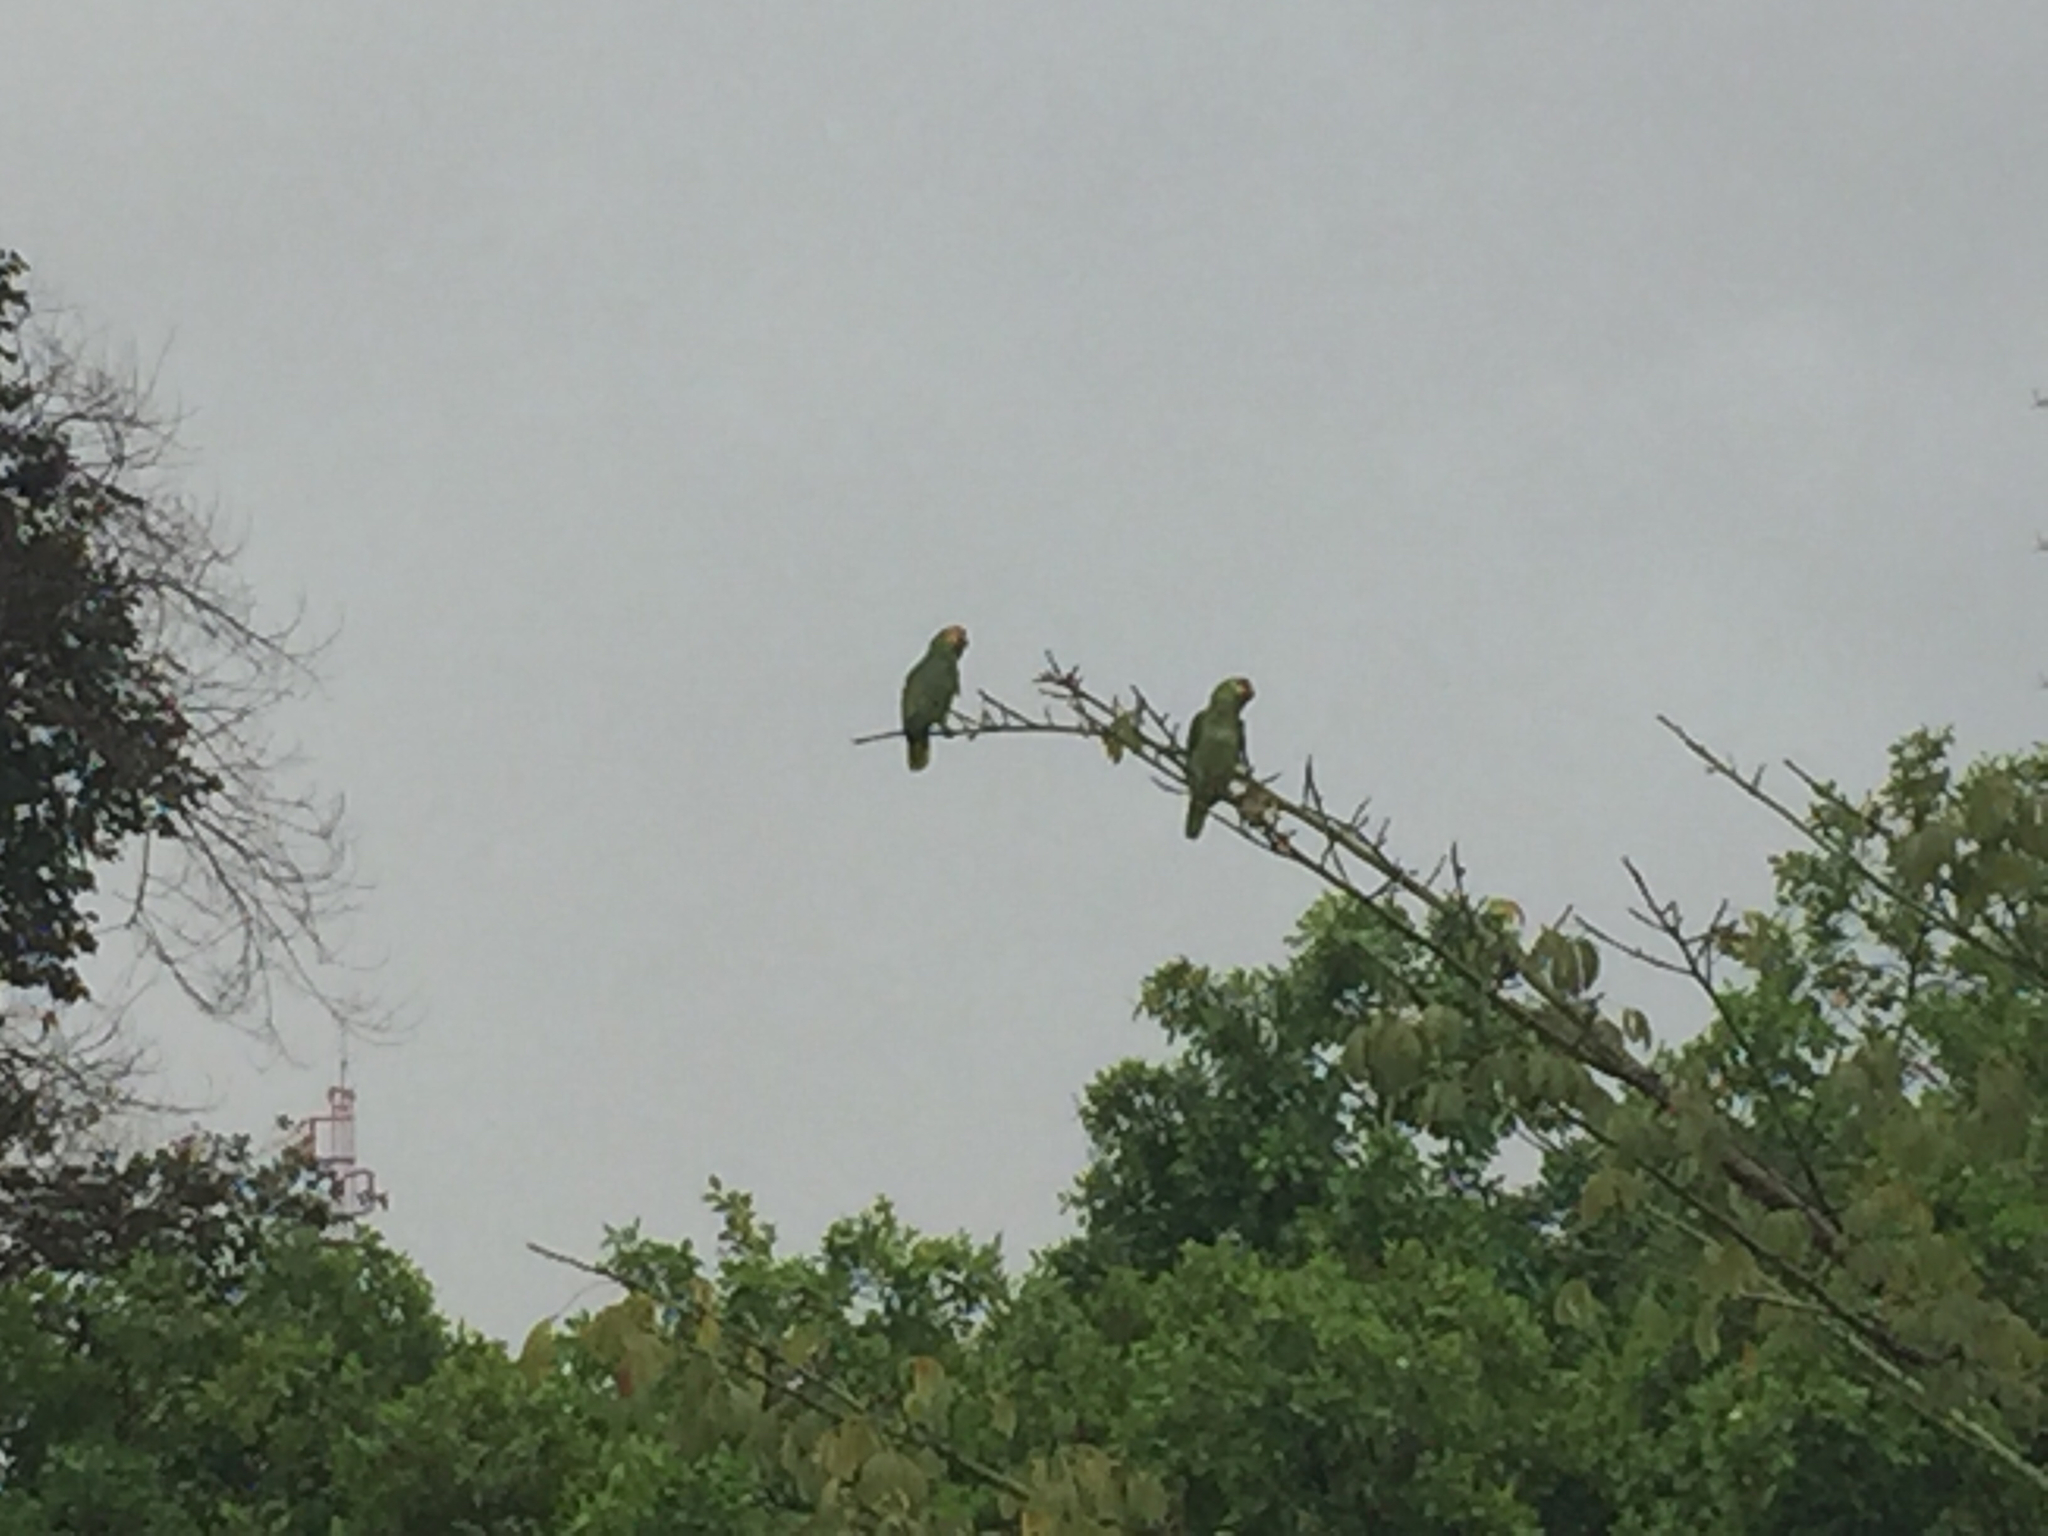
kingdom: Animalia
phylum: Chordata
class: Aves
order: Psittaciformes
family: Psittacidae
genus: Amazona
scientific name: Amazona autumnalis
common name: Red-lored amazon
